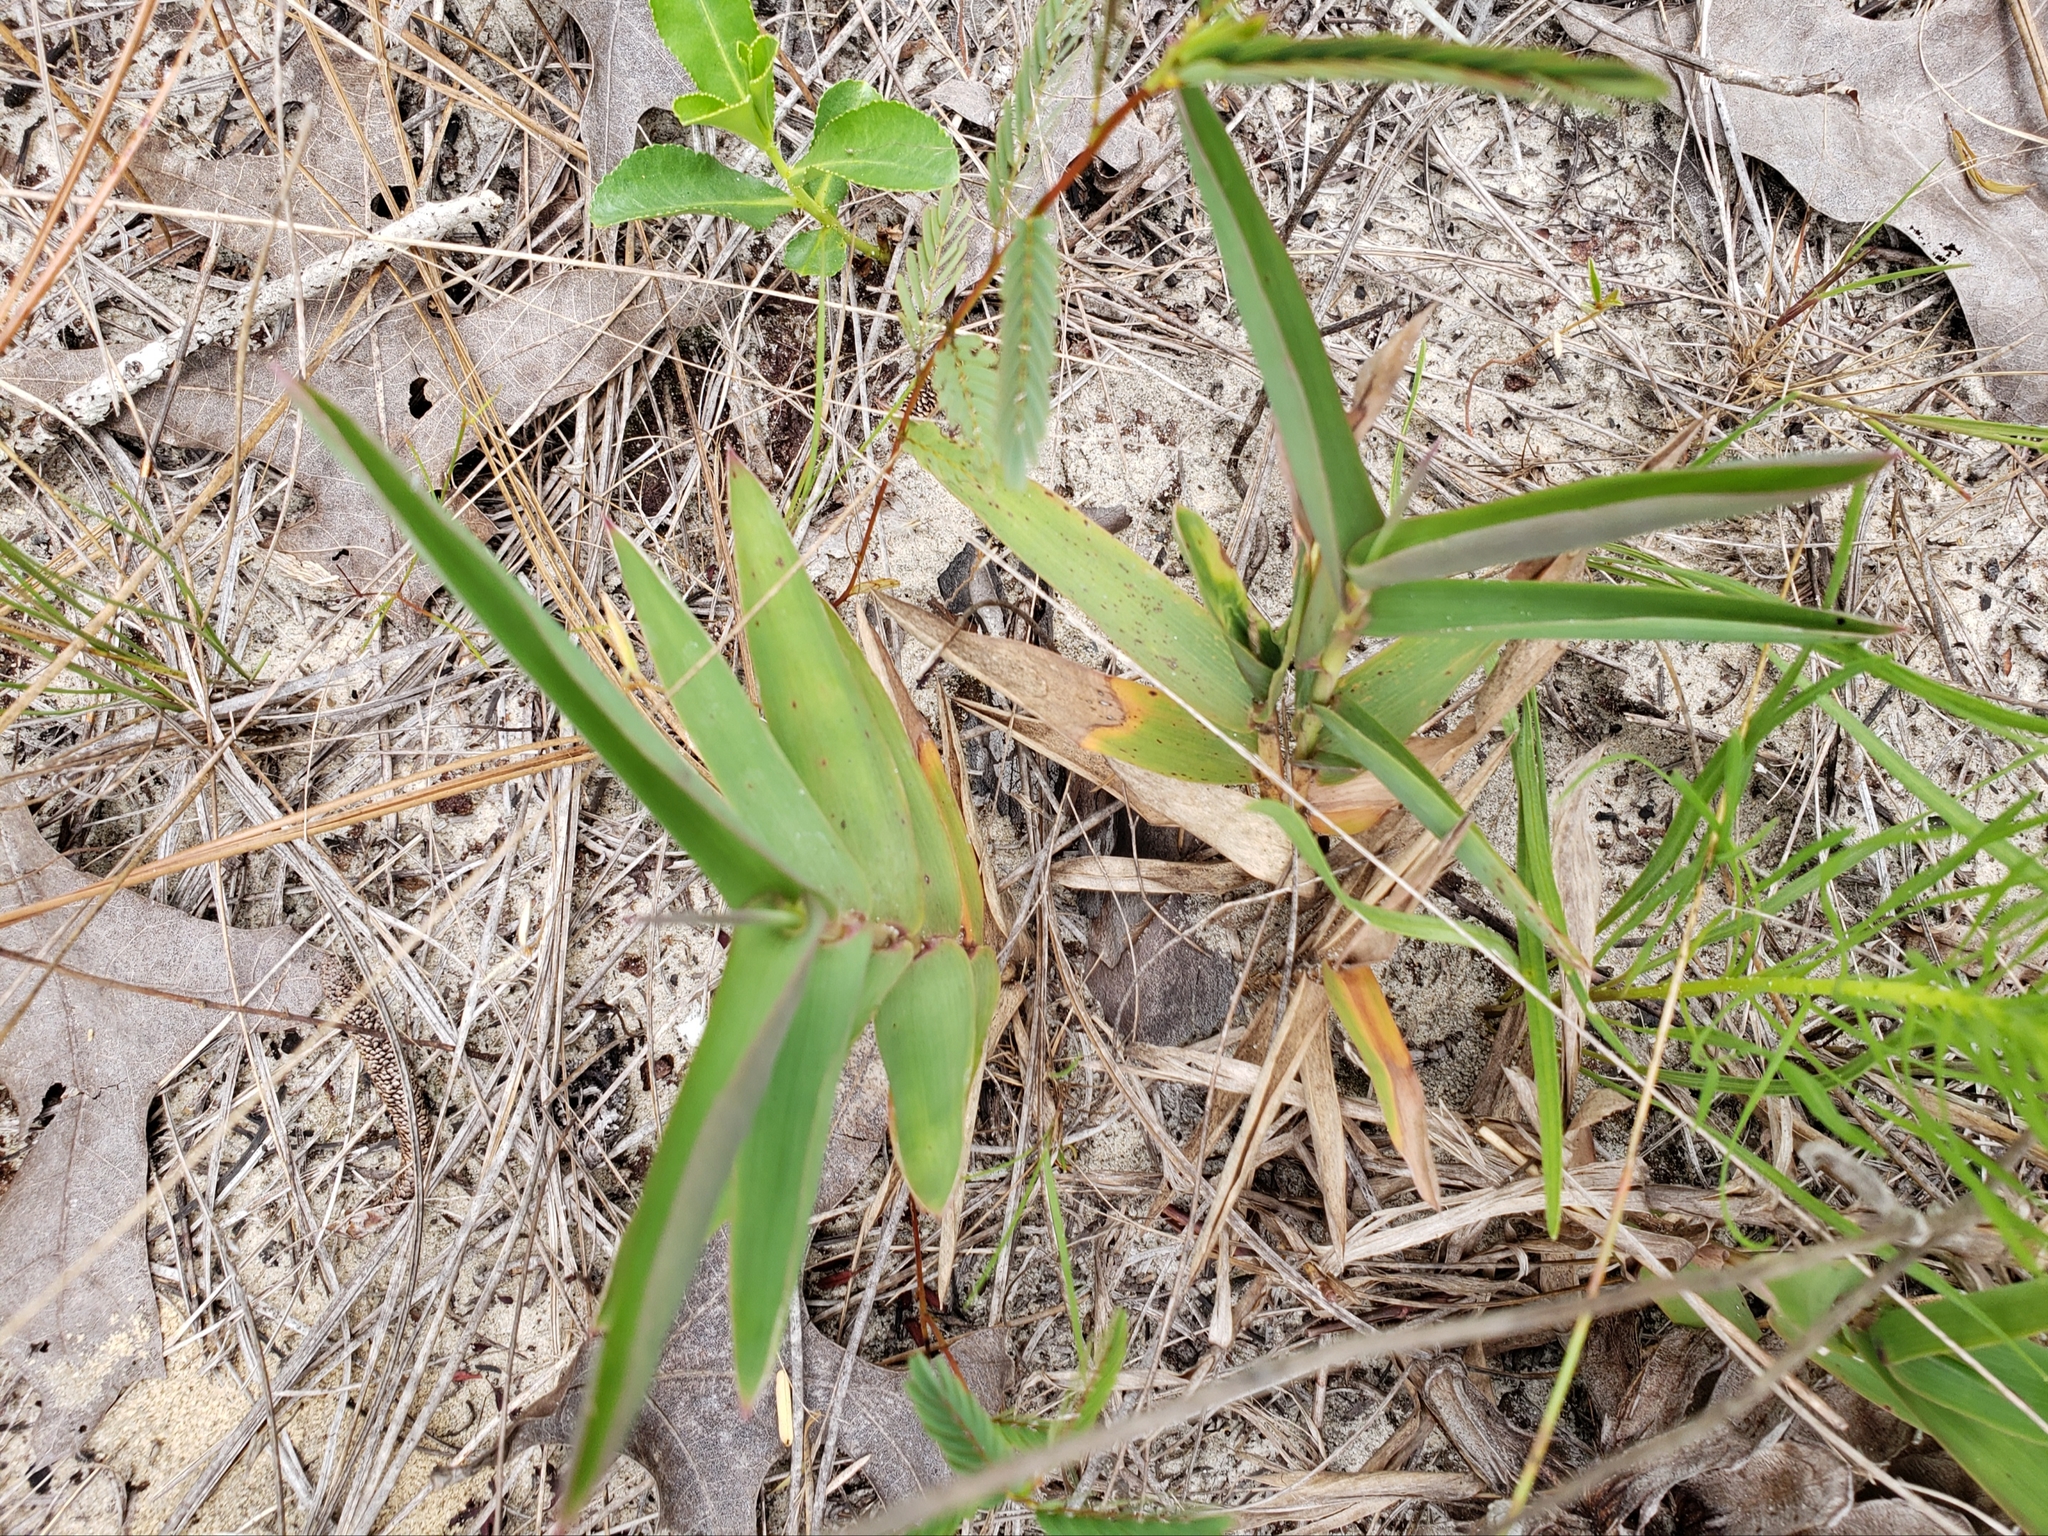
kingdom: Plantae
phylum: Tracheophyta
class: Liliopsida
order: Poales
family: Poaceae
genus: Gymnopogon
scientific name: Gymnopogon chapmanianus
